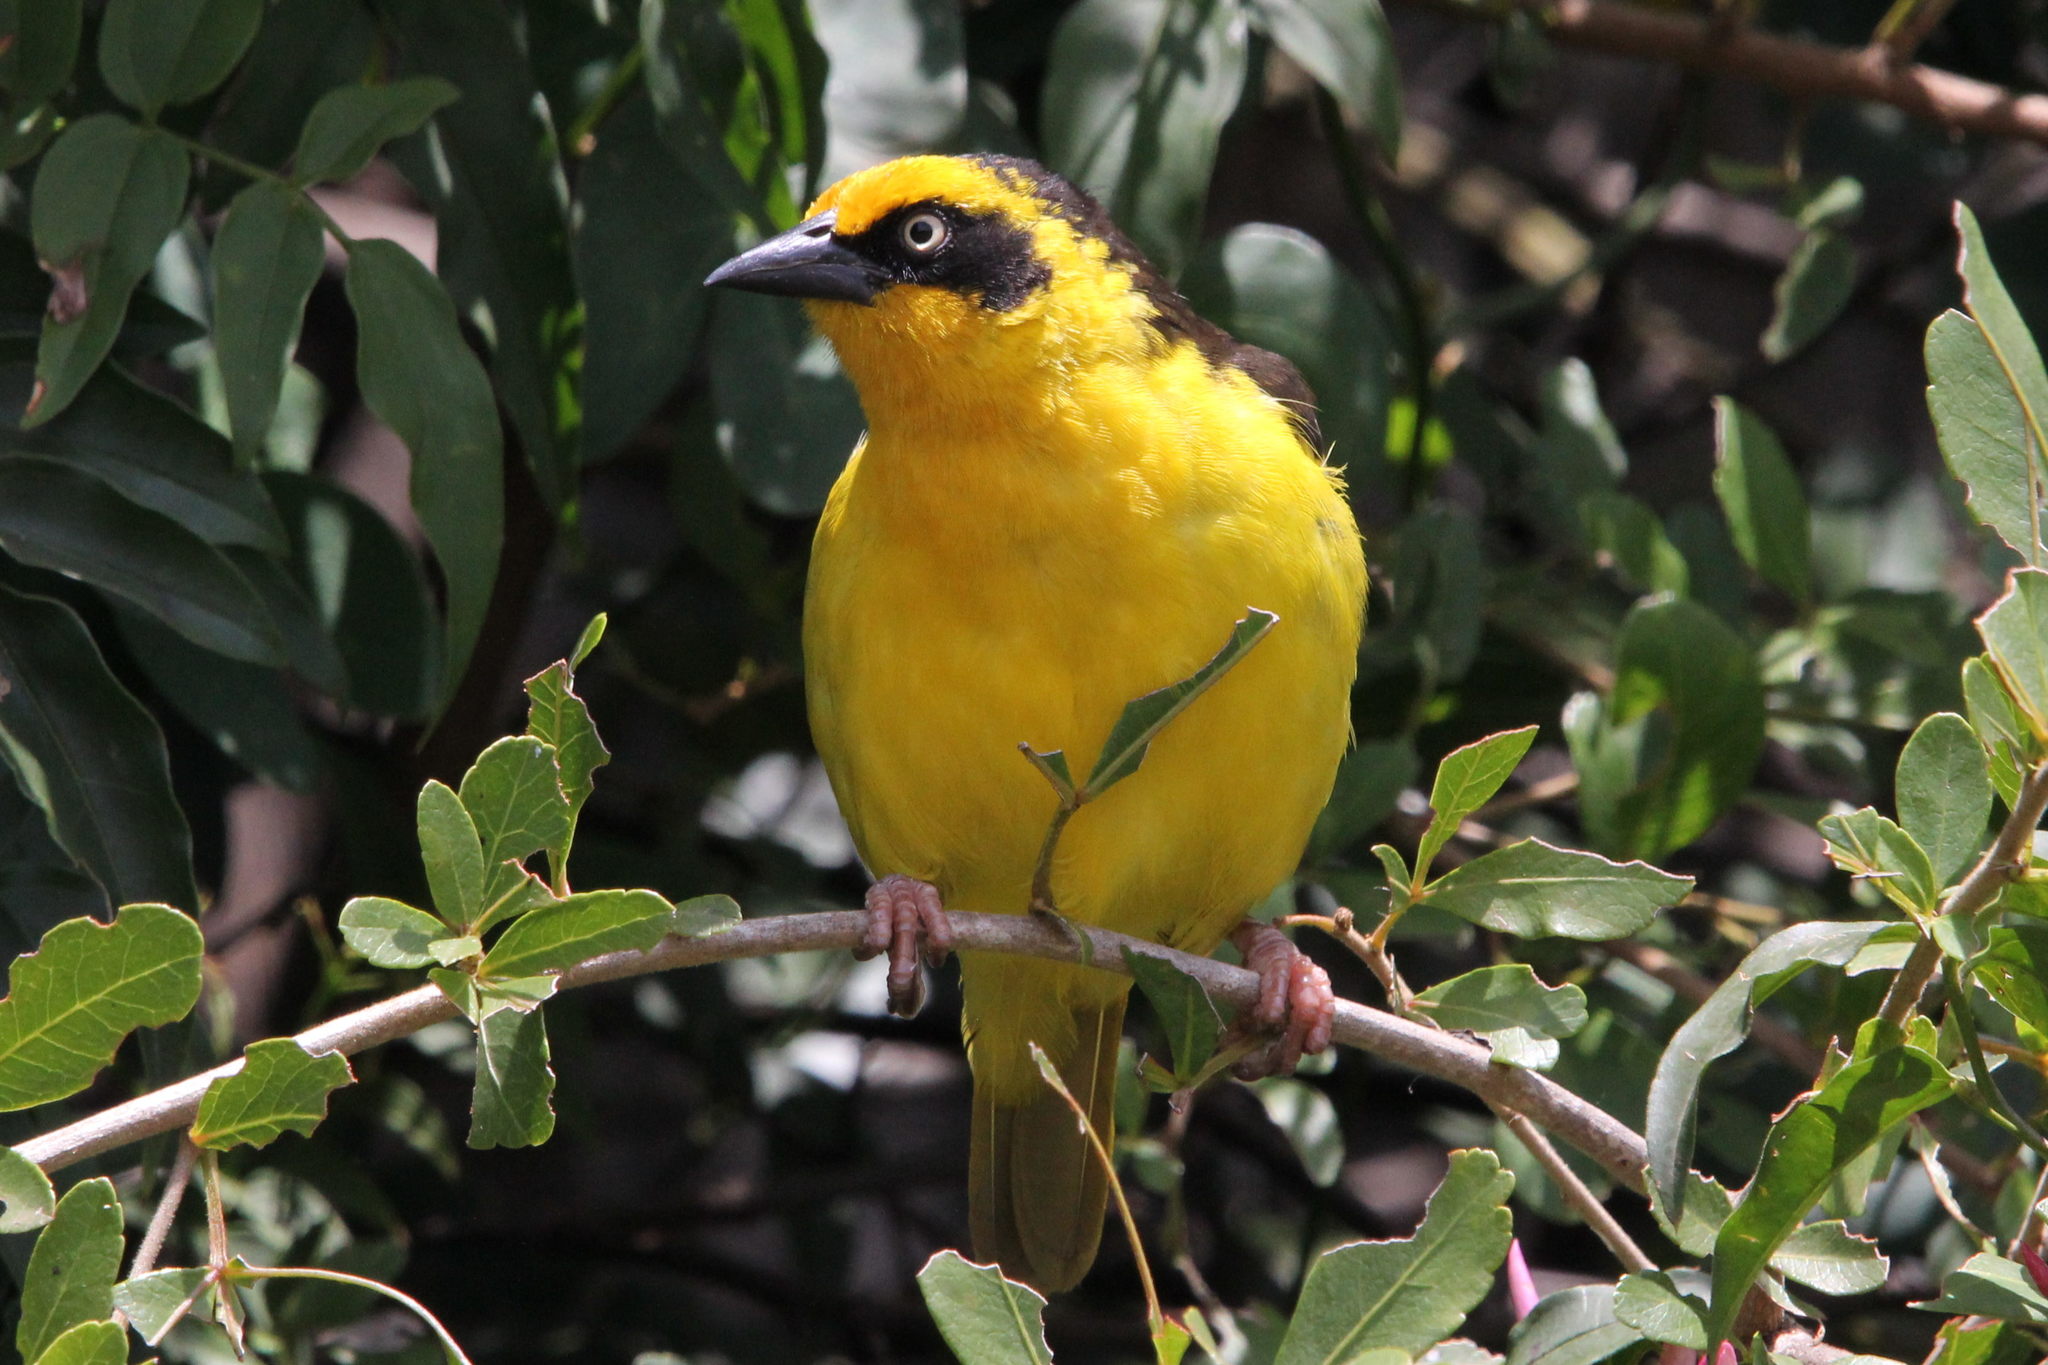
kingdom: Animalia
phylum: Chordata
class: Aves
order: Passeriformes
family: Ploceidae
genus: Ploceus
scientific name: Ploceus baglafecht
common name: Baglafecht weaver
